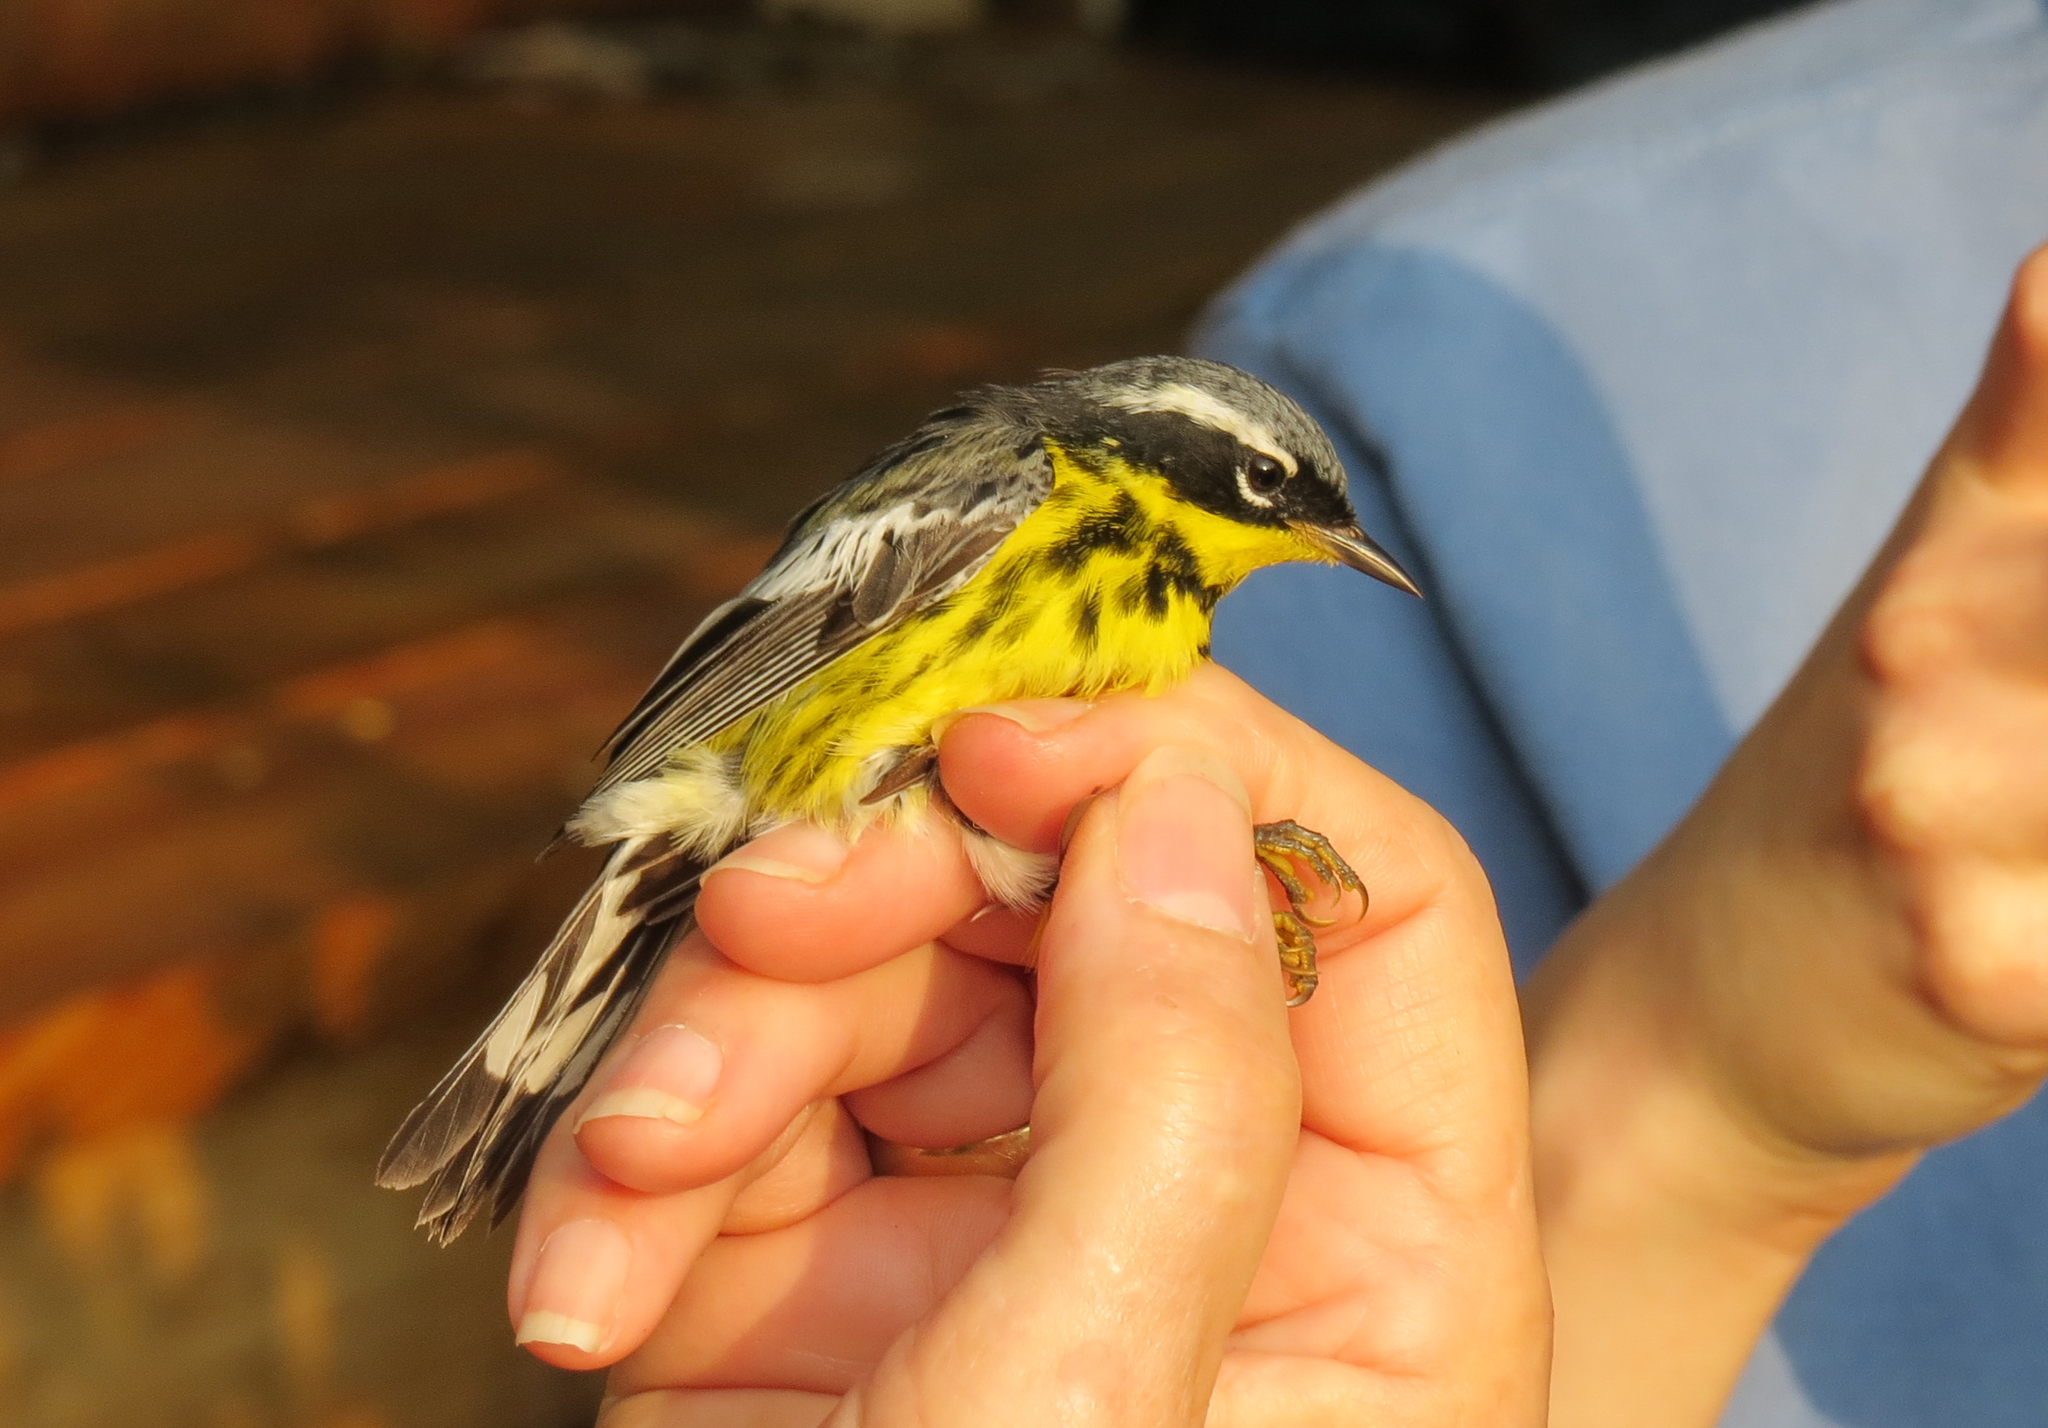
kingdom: Animalia
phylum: Chordata
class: Aves
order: Passeriformes
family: Parulidae
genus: Setophaga
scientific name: Setophaga magnolia
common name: Magnolia warbler
